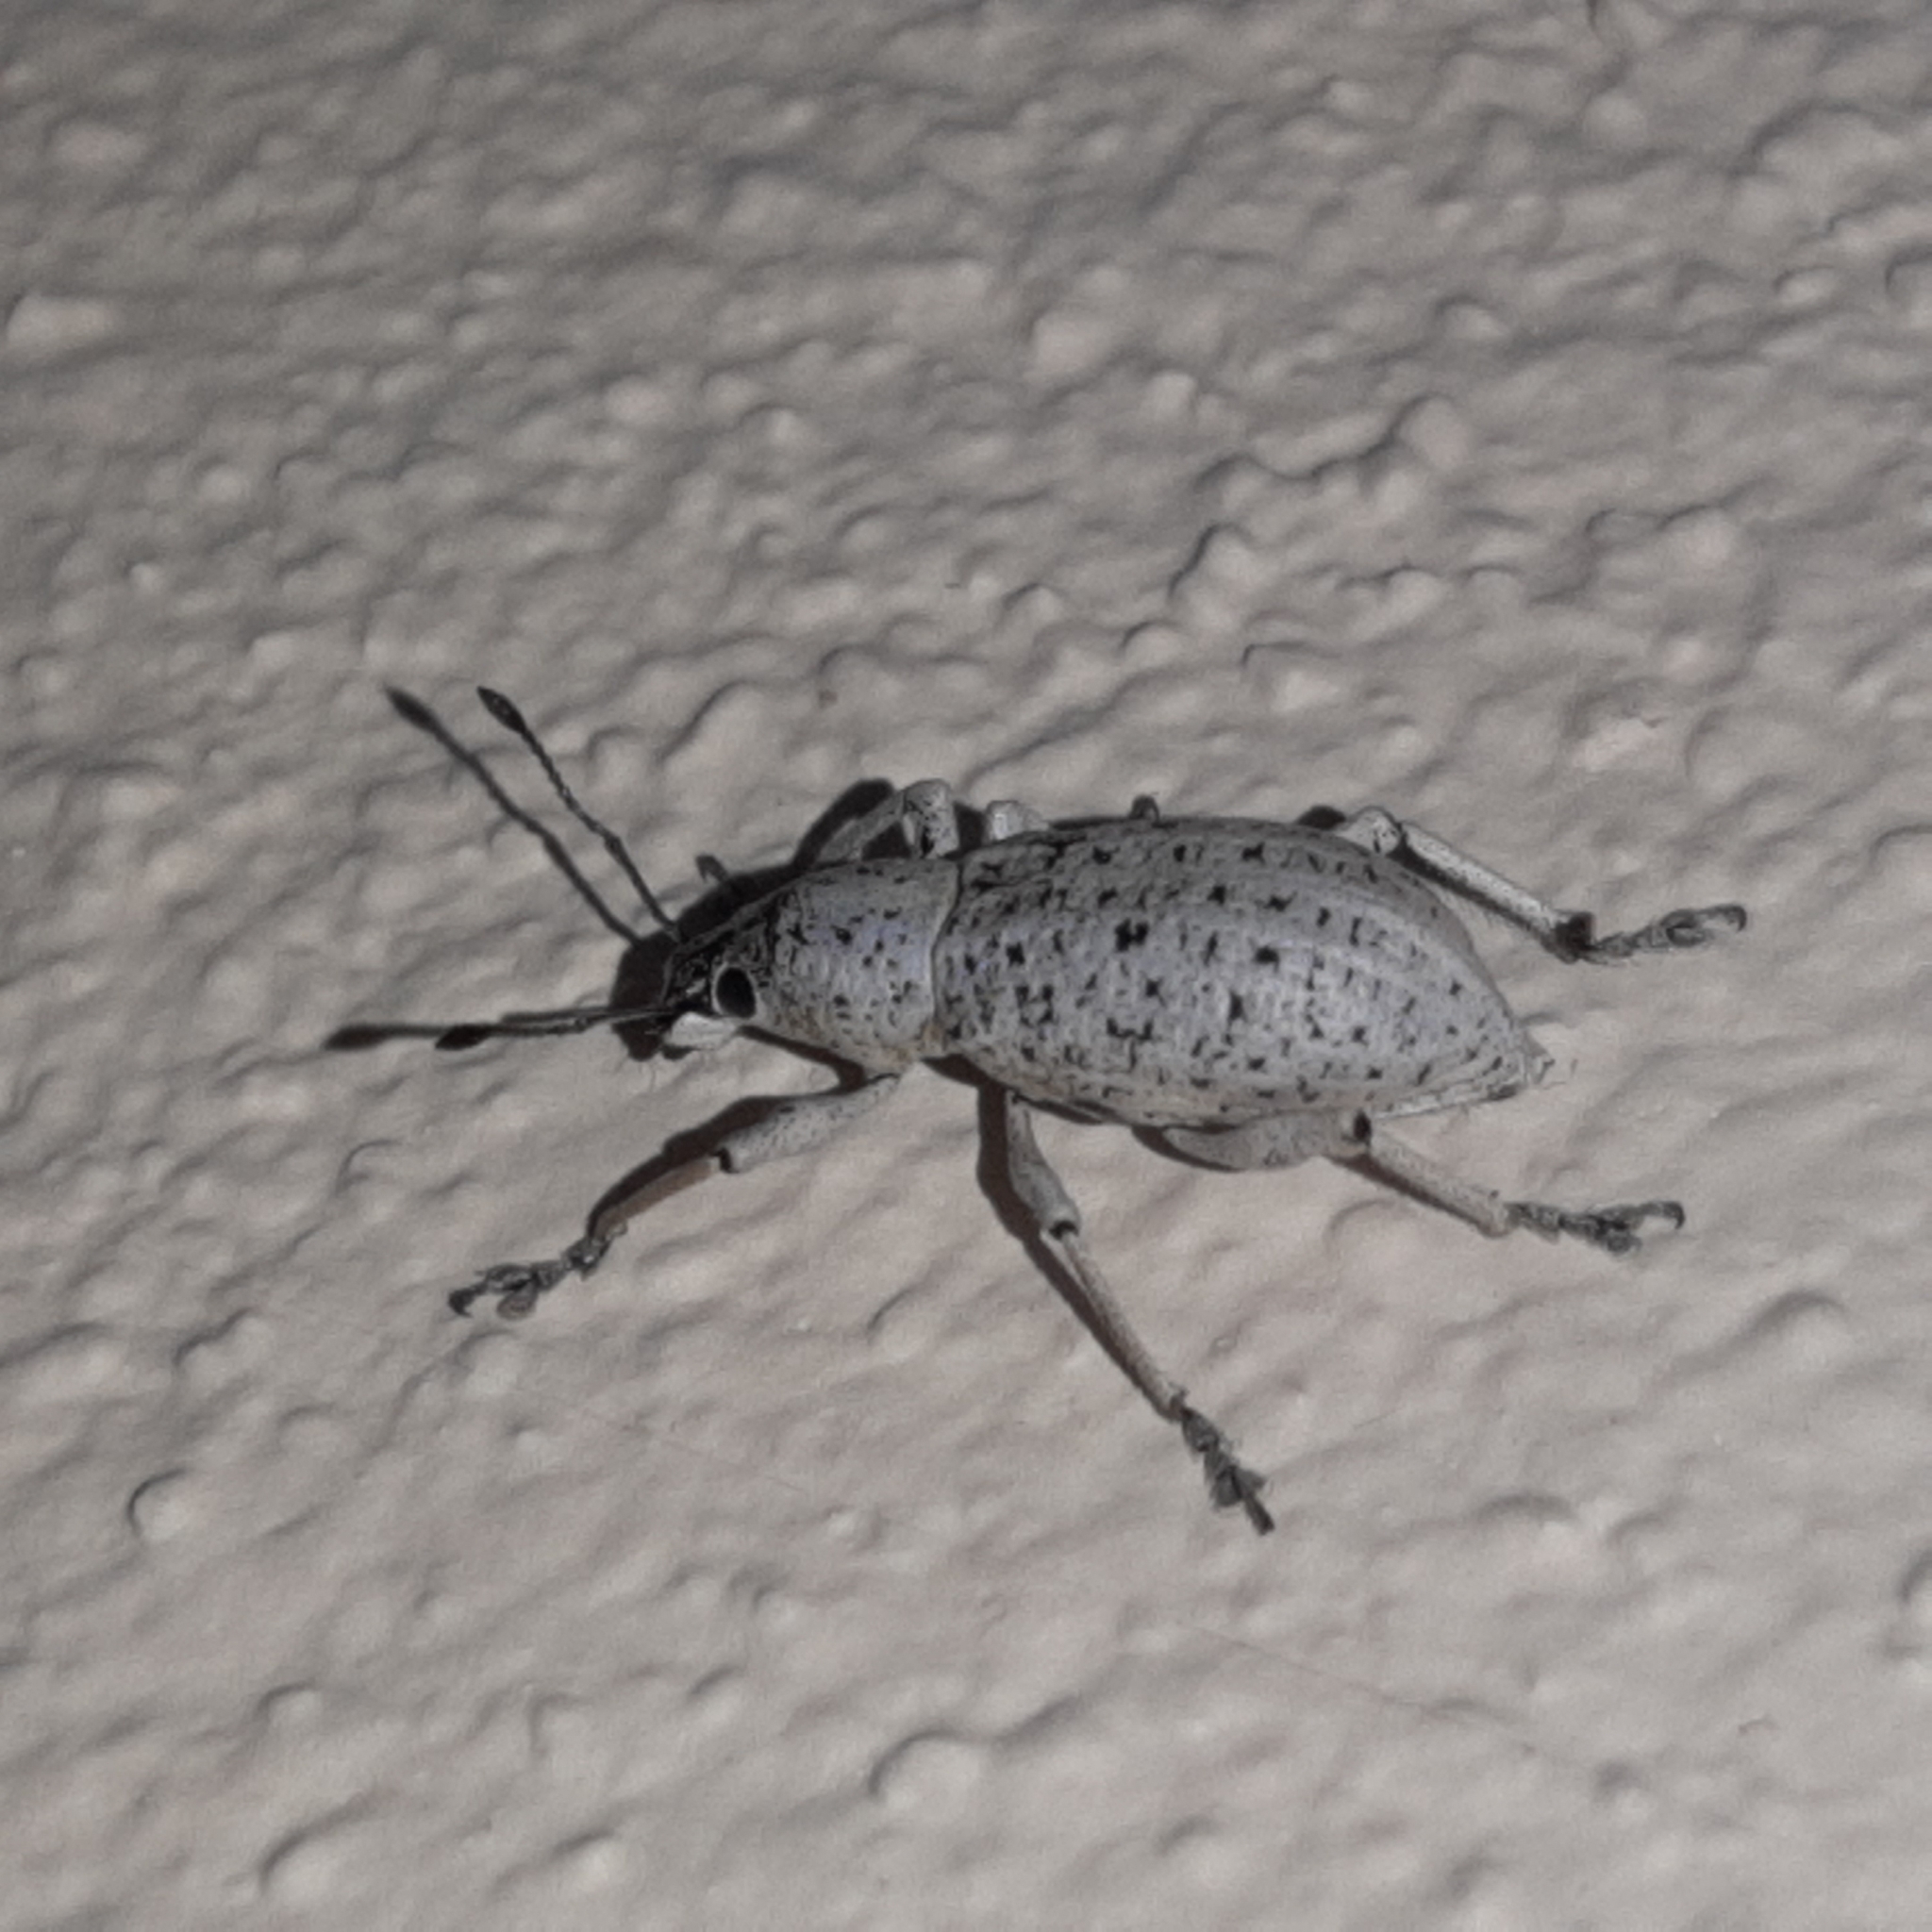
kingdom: Animalia
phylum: Arthropoda
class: Insecta
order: Coleoptera
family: Curculionidae
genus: Exophthalmus
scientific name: Exophthalmus scalptus
